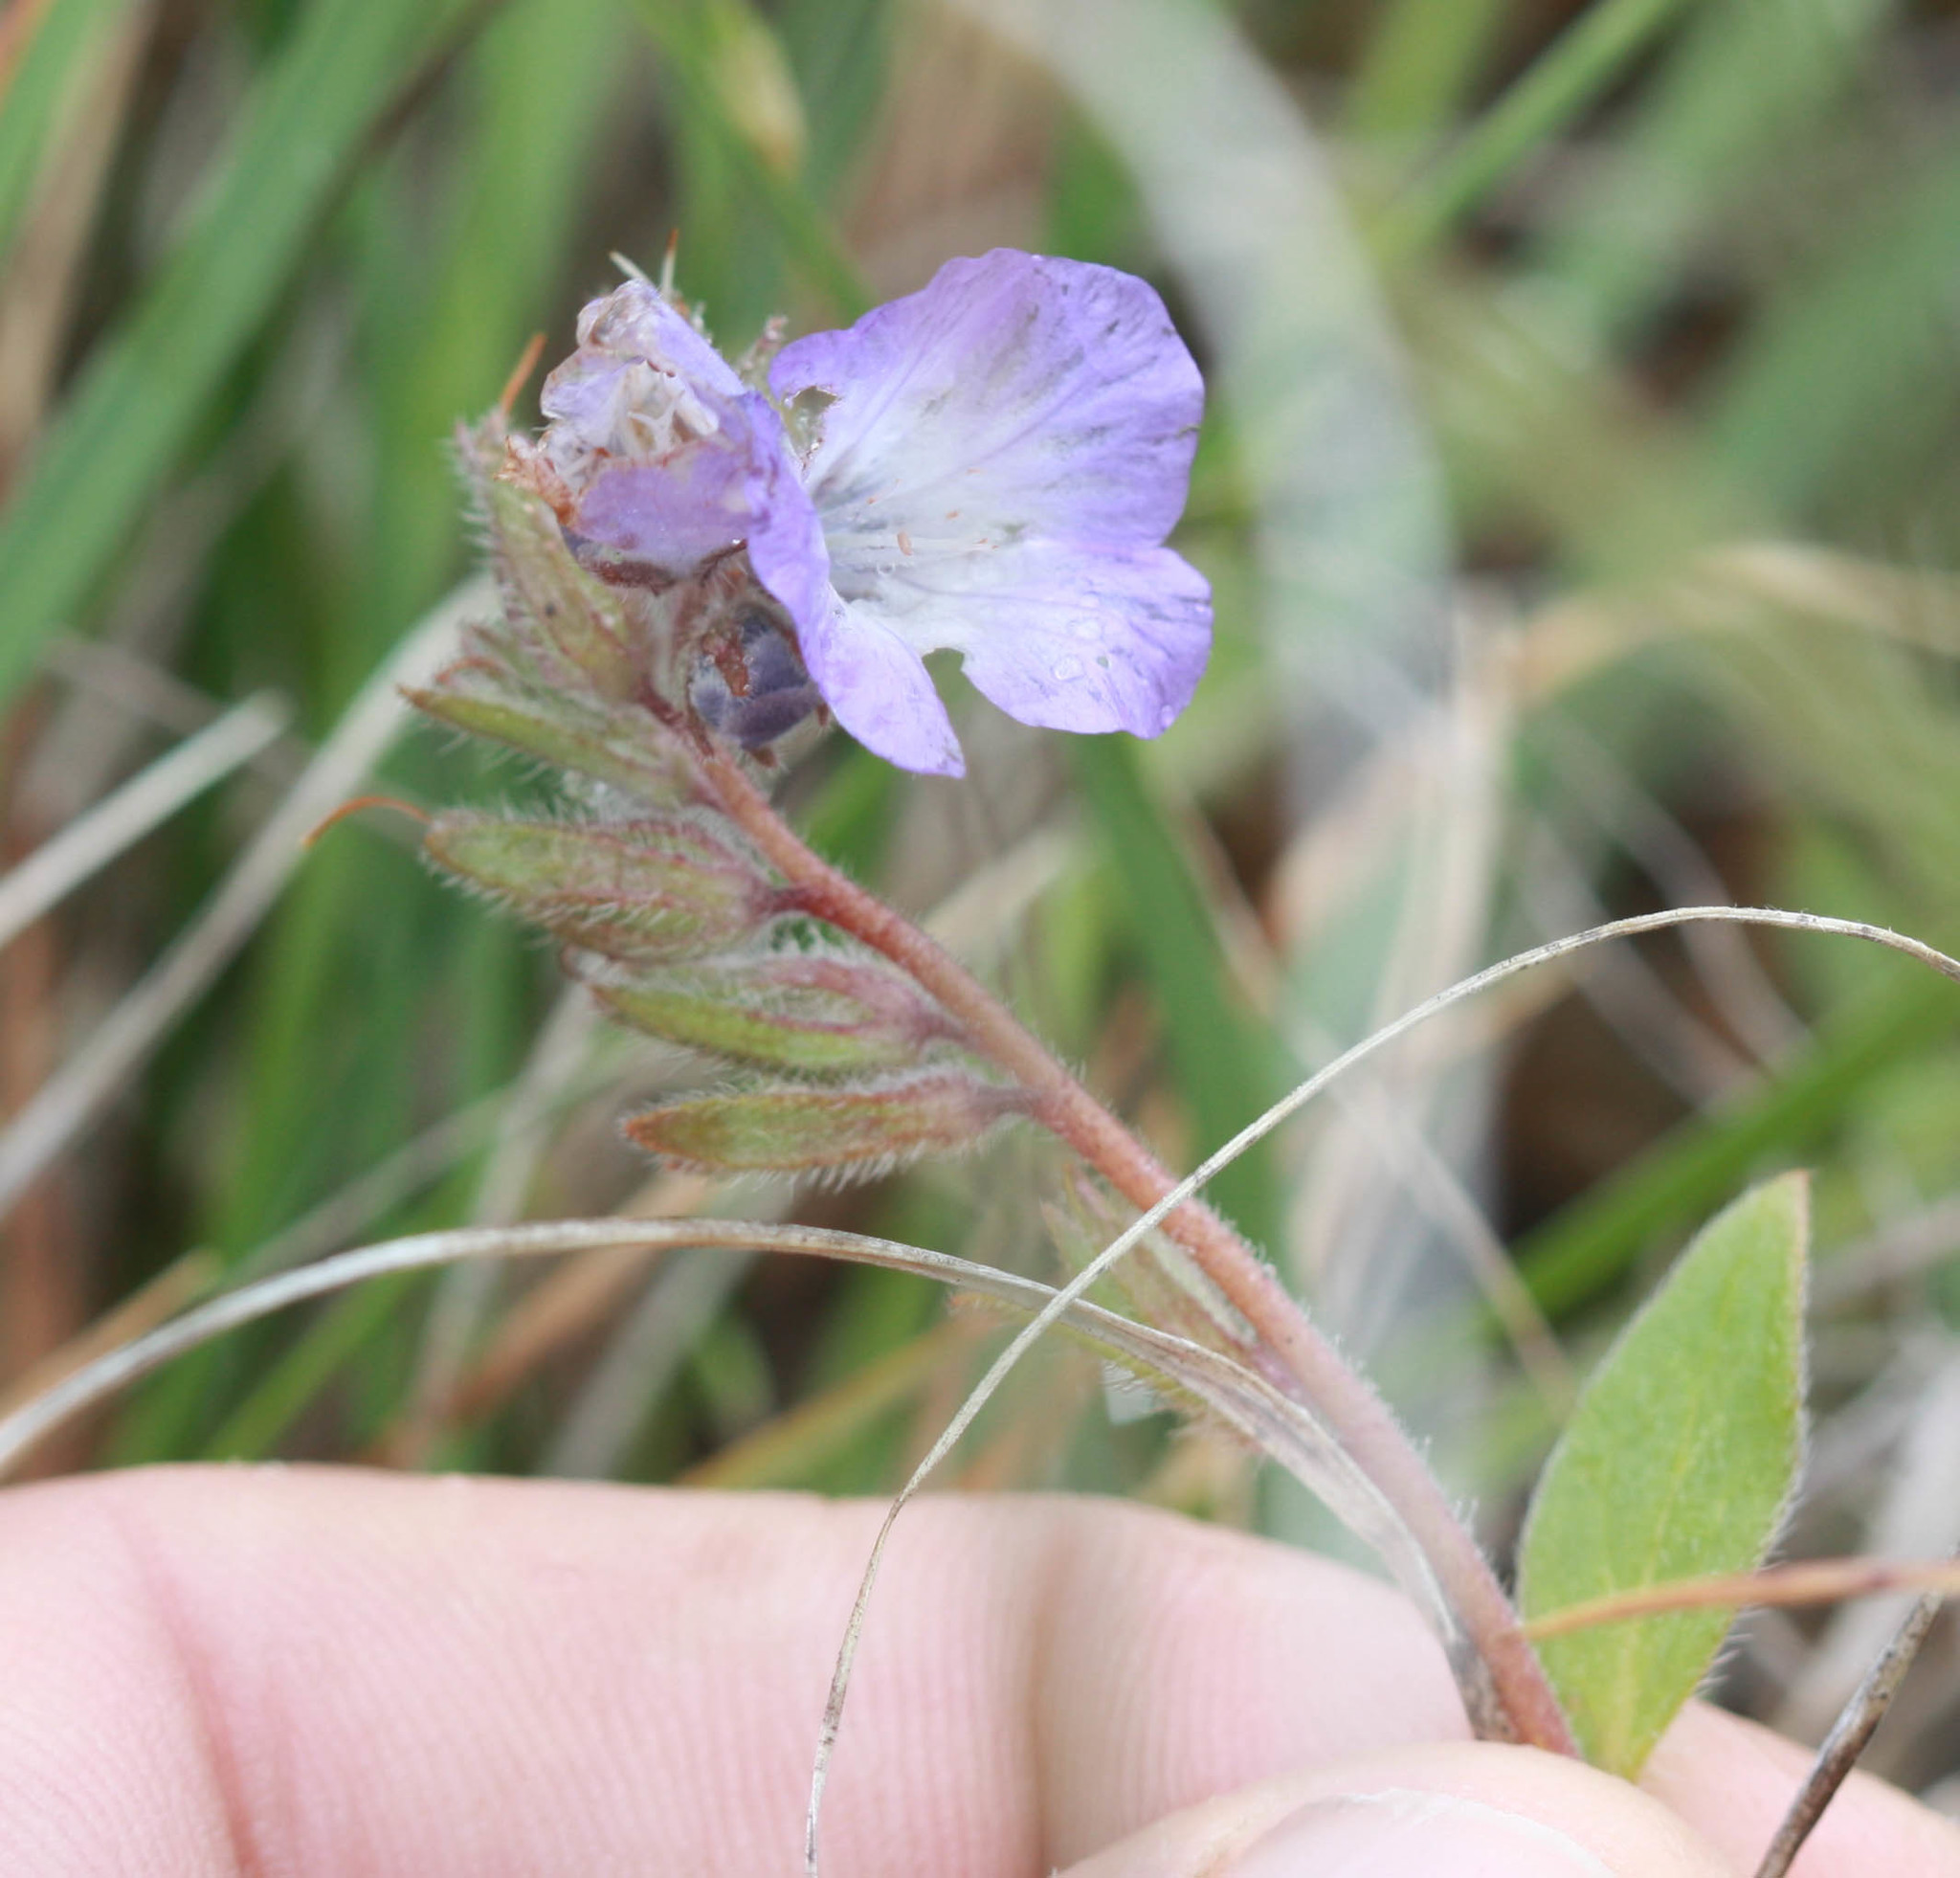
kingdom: Plantae
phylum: Tracheophyta
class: Magnoliopsida
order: Boraginales
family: Hydrophyllaceae
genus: Phacelia
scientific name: Phacelia divaricata
